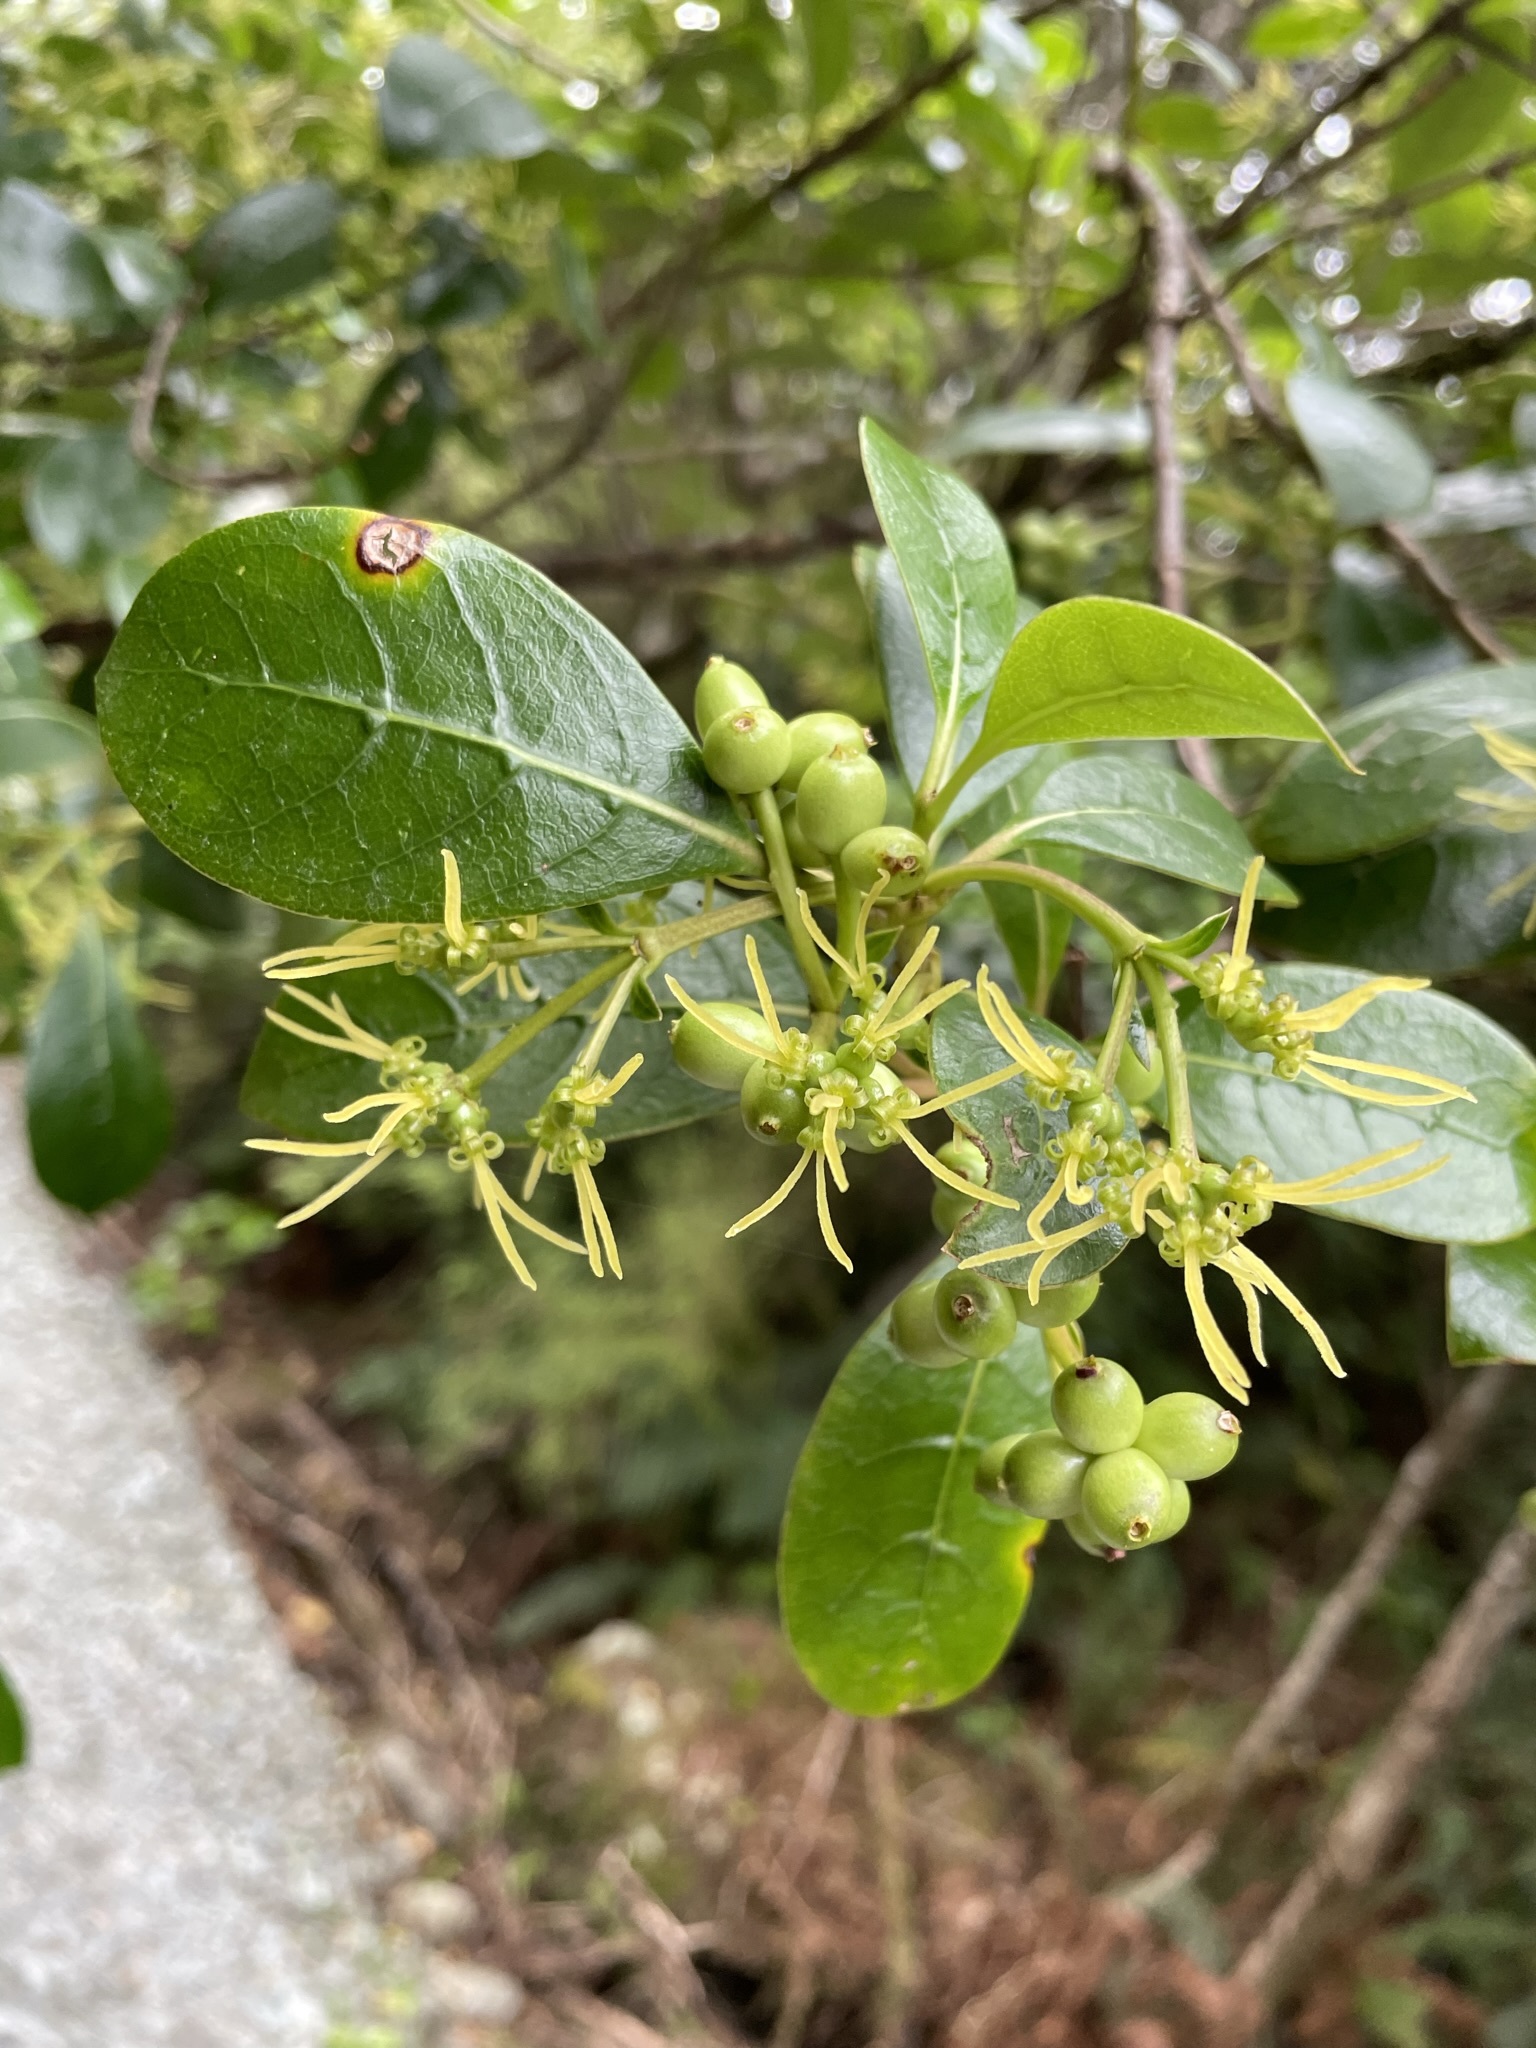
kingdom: Plantae
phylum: Tracheophyta
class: Magnoliopsida
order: Gentianales
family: Rubiaceae
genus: Coprosma
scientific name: Coprosma lucida
